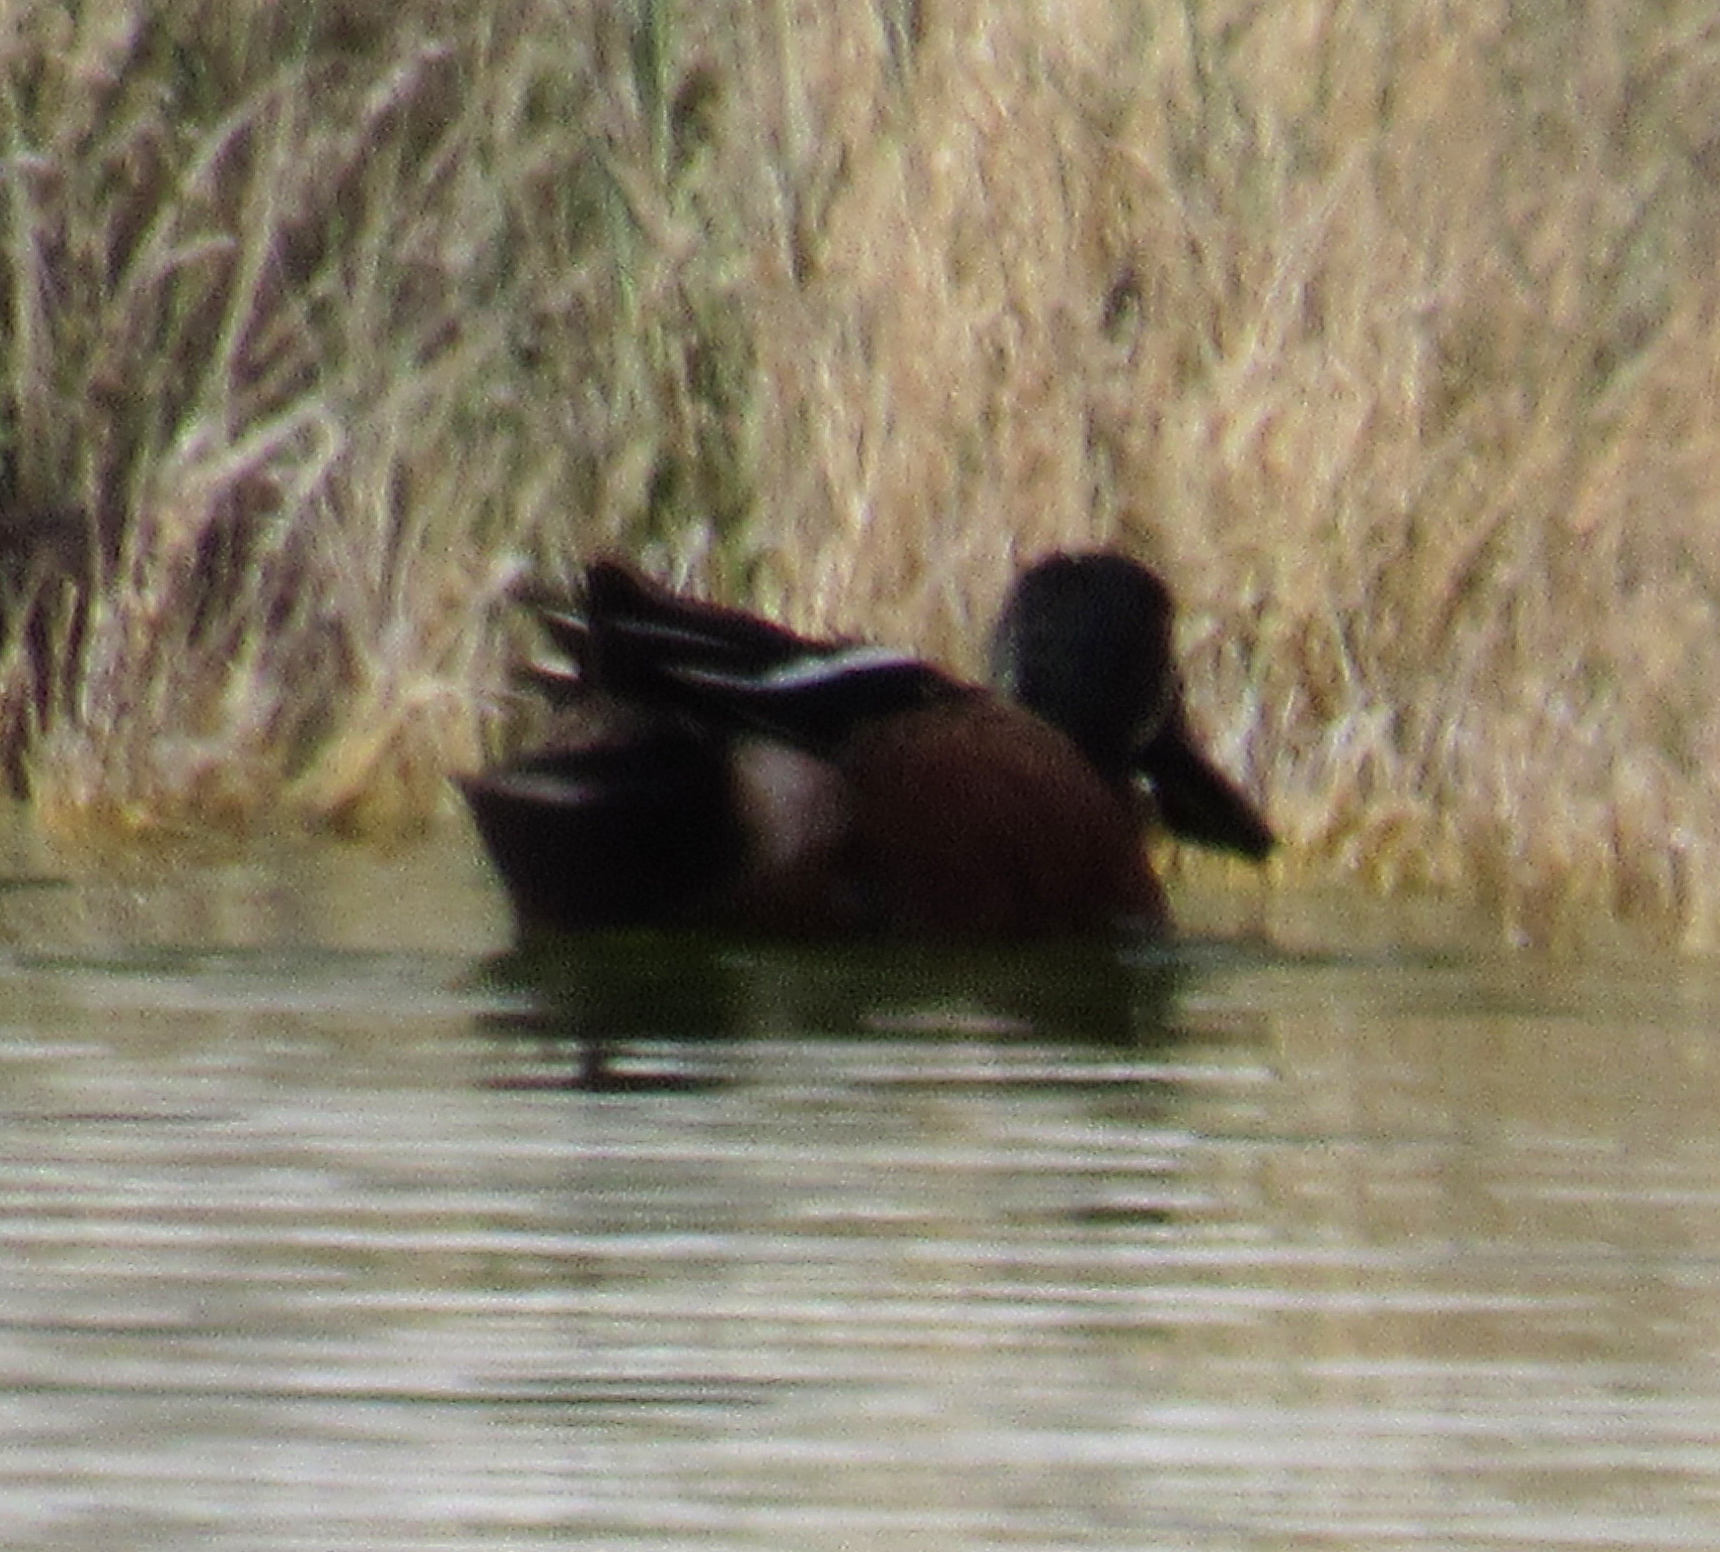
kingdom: Animalia
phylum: Chordata
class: Aves
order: Anseriformes
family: Anatidae
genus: Spatula
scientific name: Spatula
